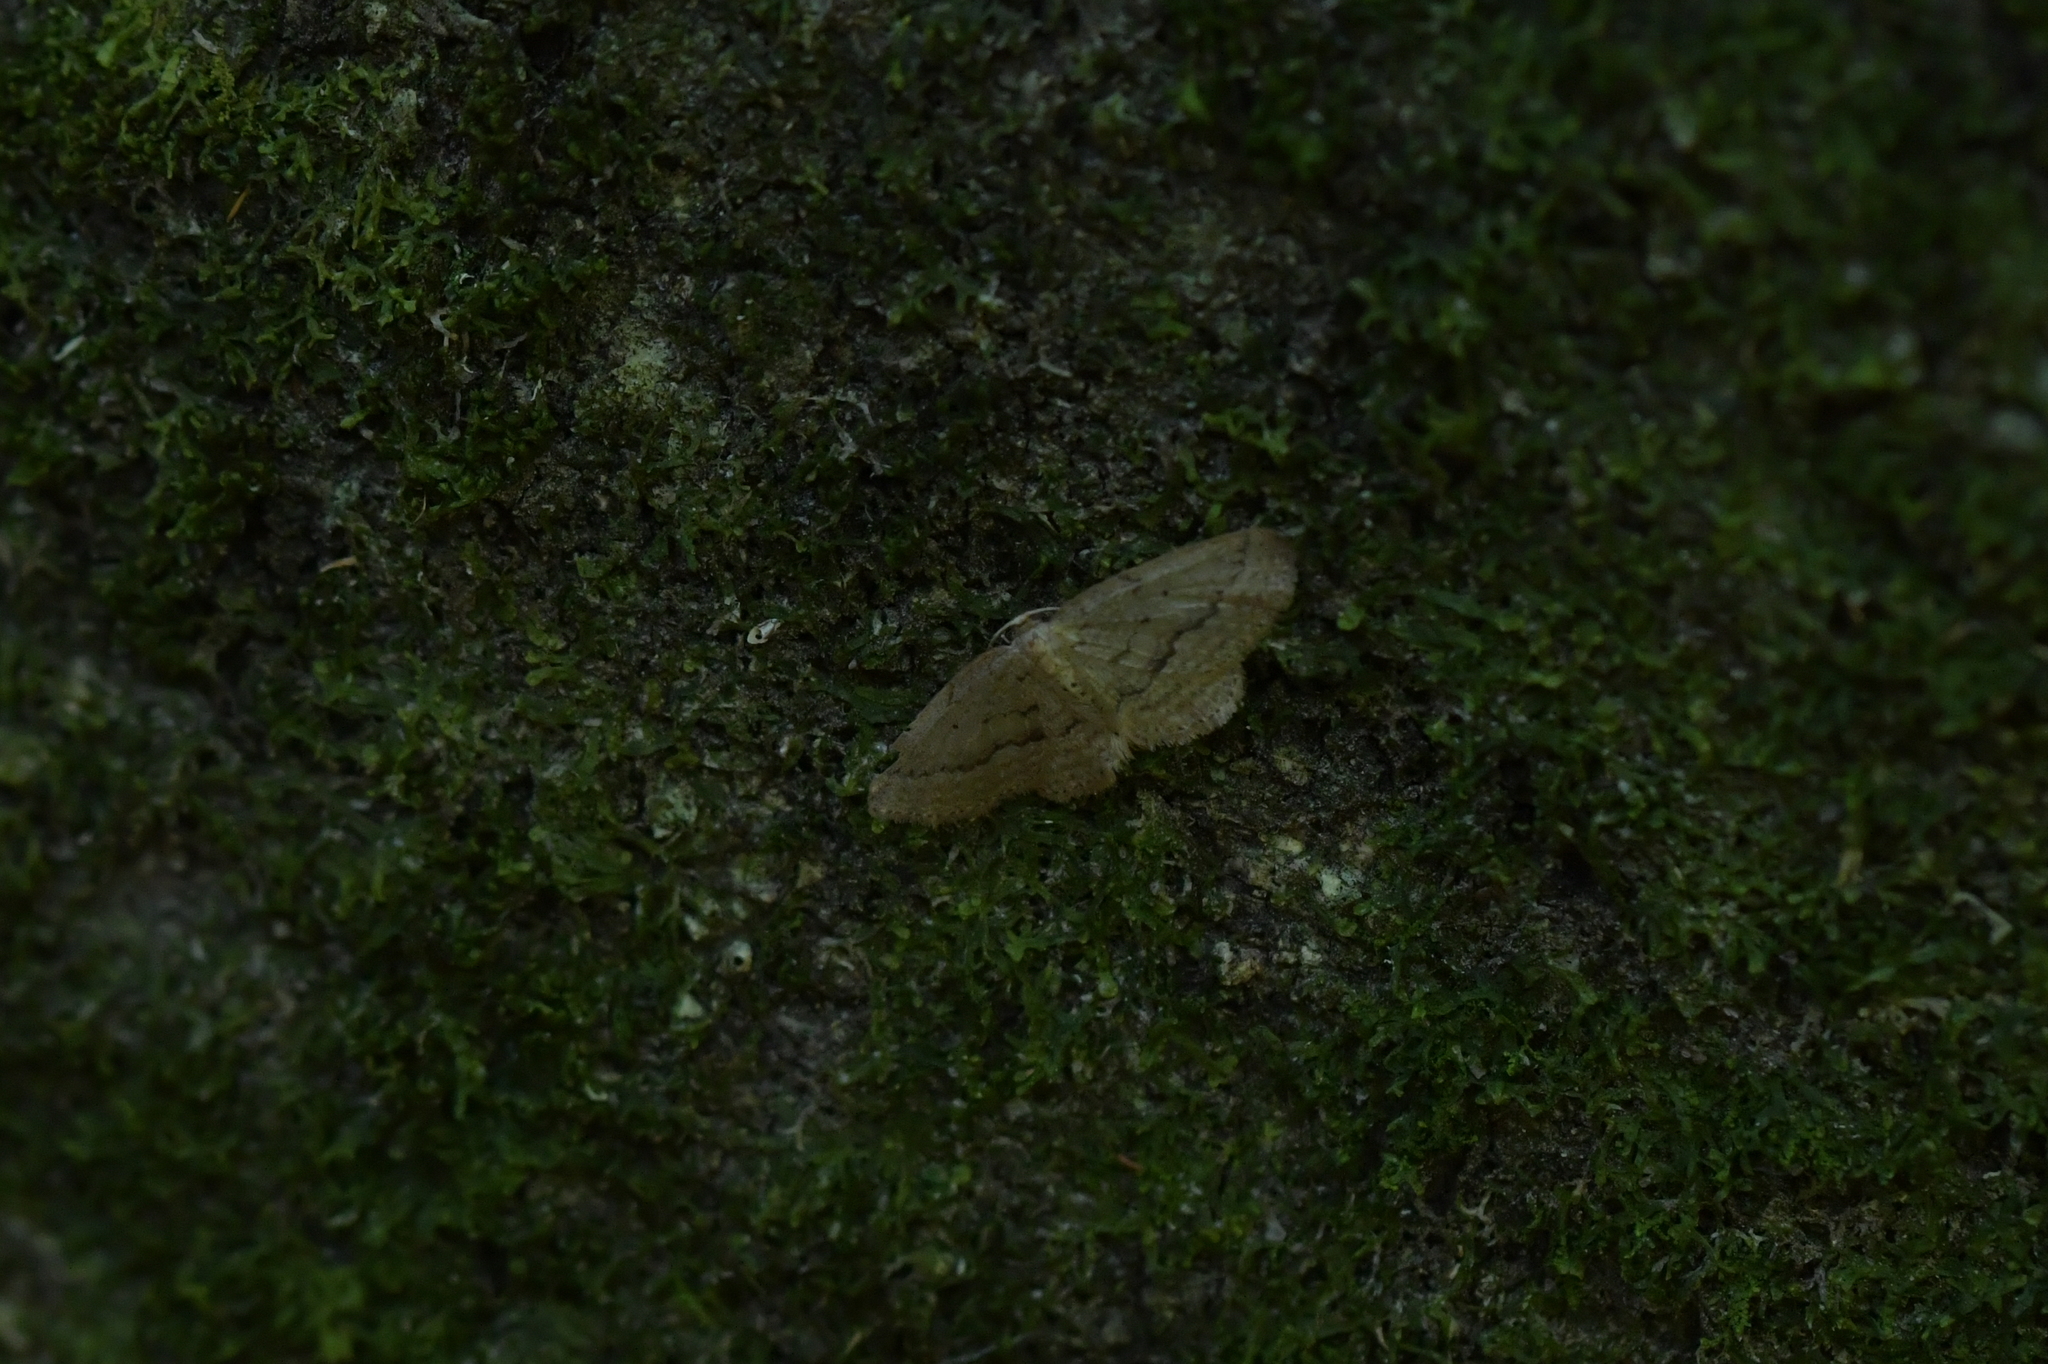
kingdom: Animalia
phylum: Arthropoda
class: Insecta
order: Lepidoptera
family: Geometridae
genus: Poecilasthena
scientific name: Poecilasthena schistaria
